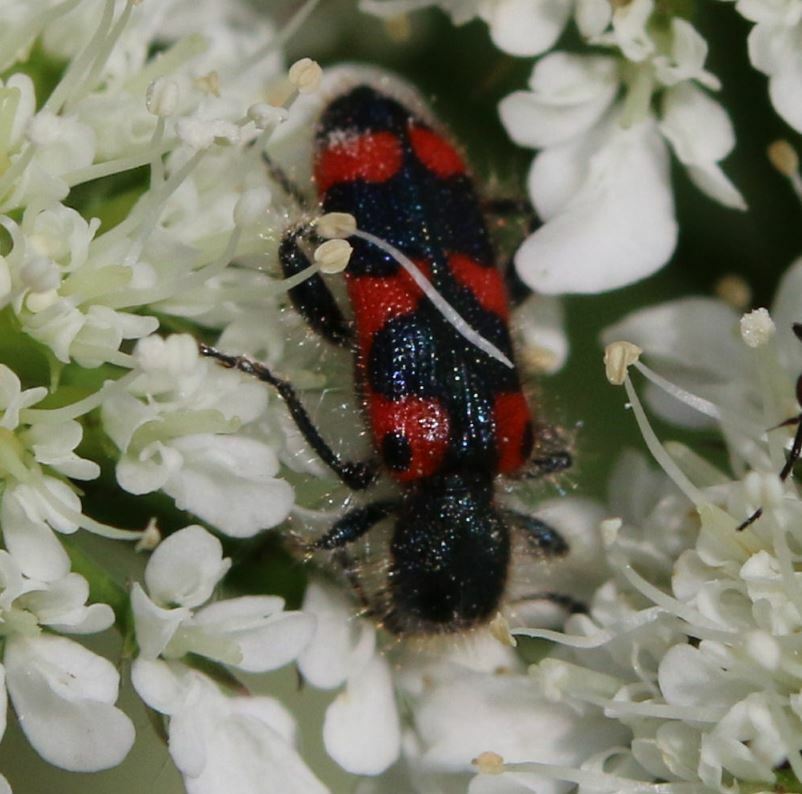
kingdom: Animalia
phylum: Arthropoda
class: Insecta
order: Coleoptera
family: Cleridae
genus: Trichodes
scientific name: Trichodes leucopsideus
